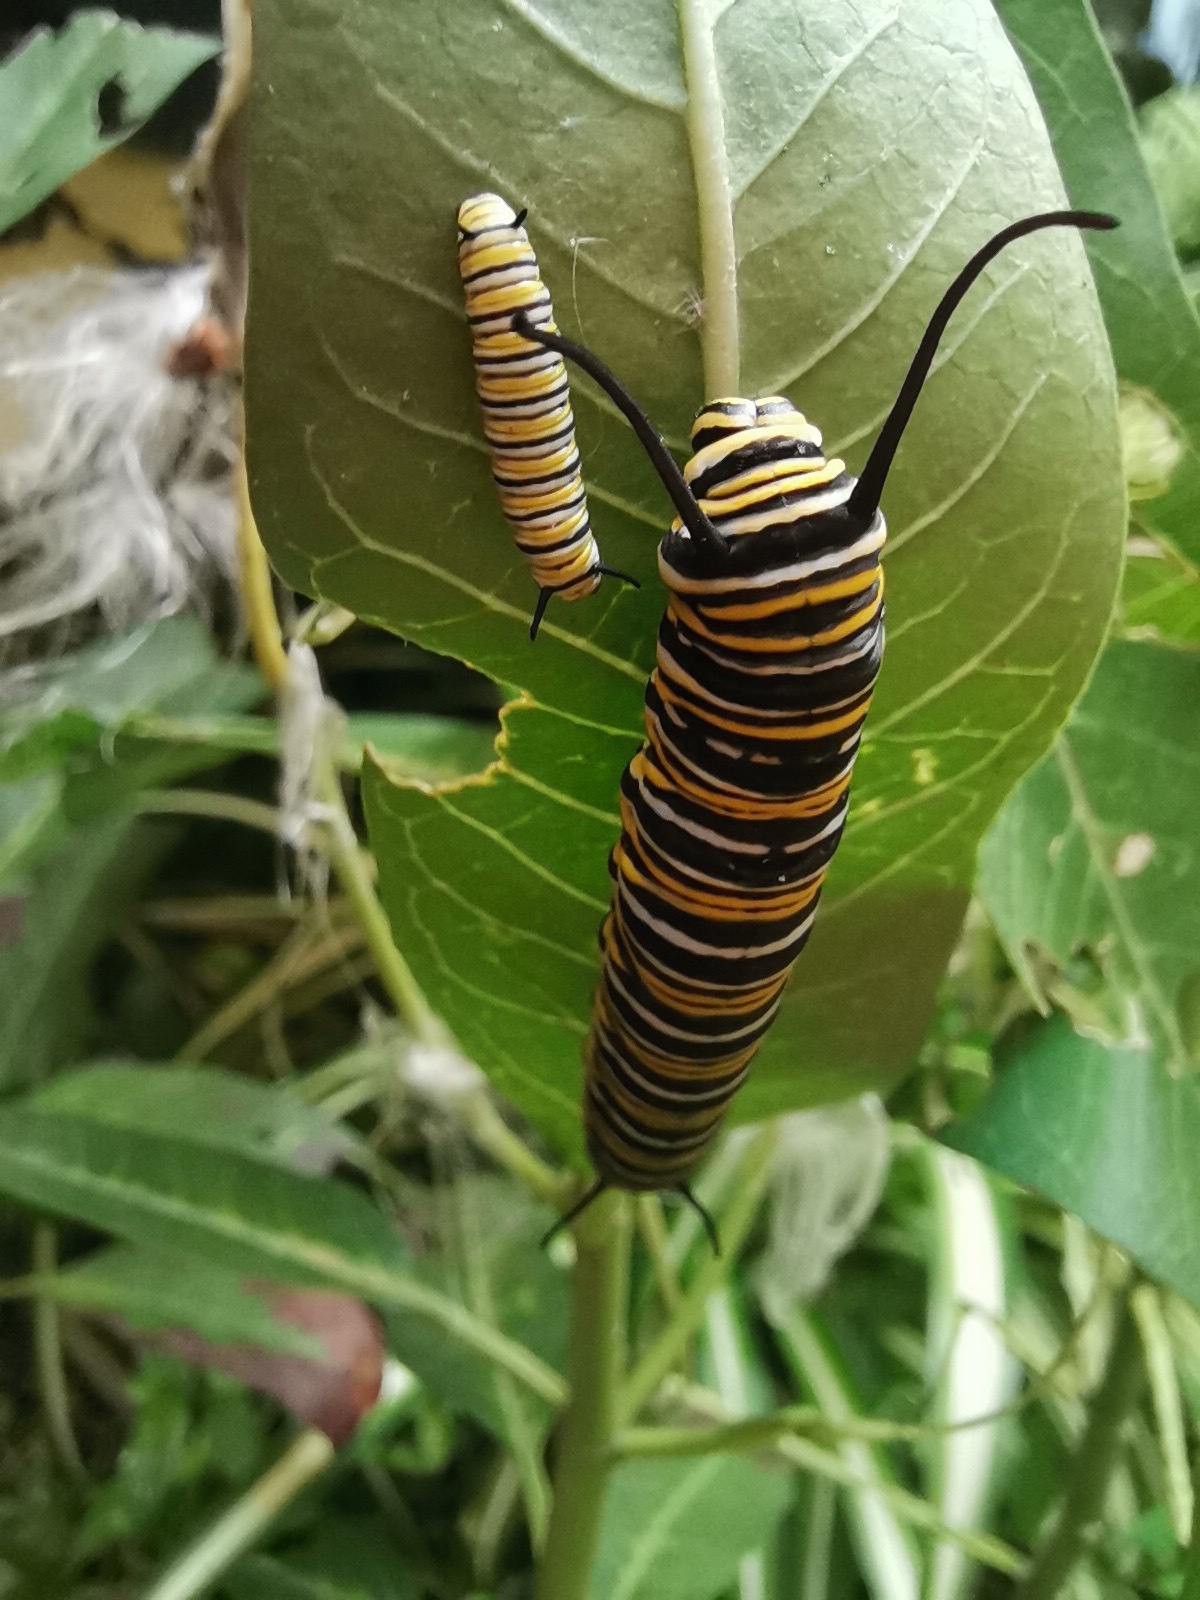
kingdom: Animalia
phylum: Arthropoda
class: Insecta
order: Lepidoptera
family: Nymphalidae
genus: Danaus
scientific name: Danaus plexippus
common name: Monarch
